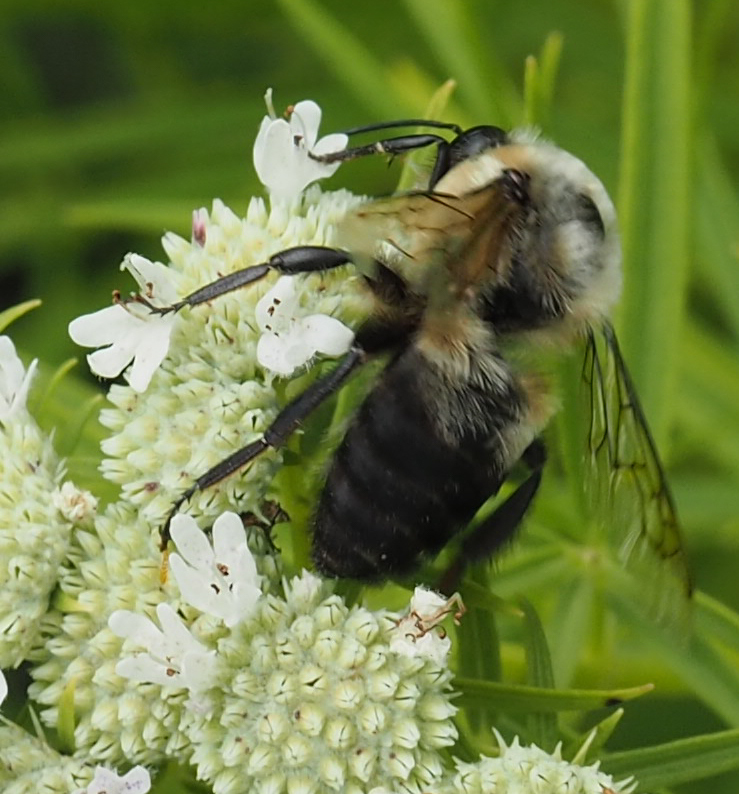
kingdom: Animalia
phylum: Arthropoda
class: Insecta
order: Hymenoptera
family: Apidae
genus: Bombus
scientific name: Bombus griseocollis
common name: Brown-belted bumble bee
